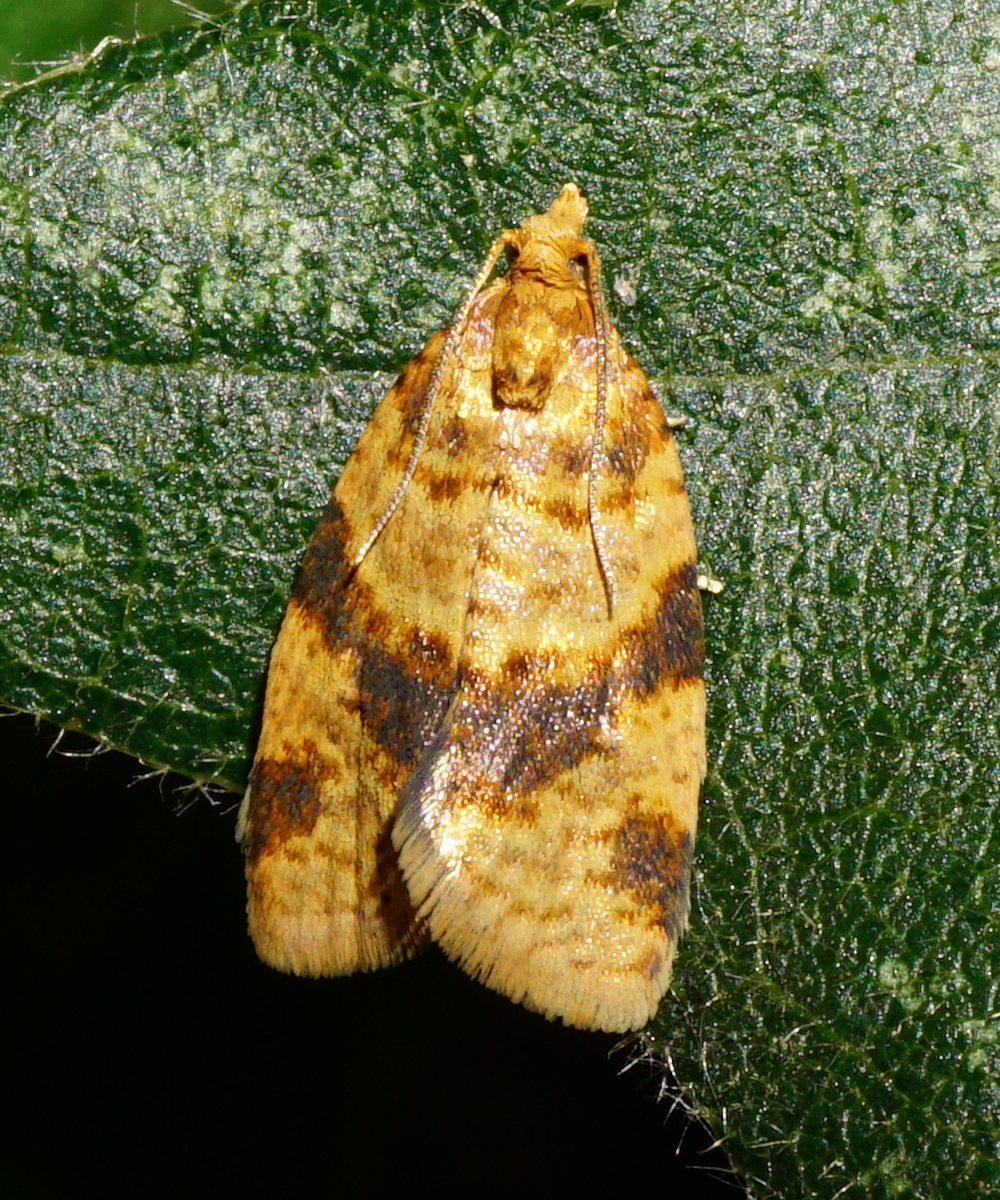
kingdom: Animalia
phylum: Arthropoda
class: Insecta
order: Lepidoptera
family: Tortricidae
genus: Epagoge
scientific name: Epagoge grotiana
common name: Brown-barred twist
